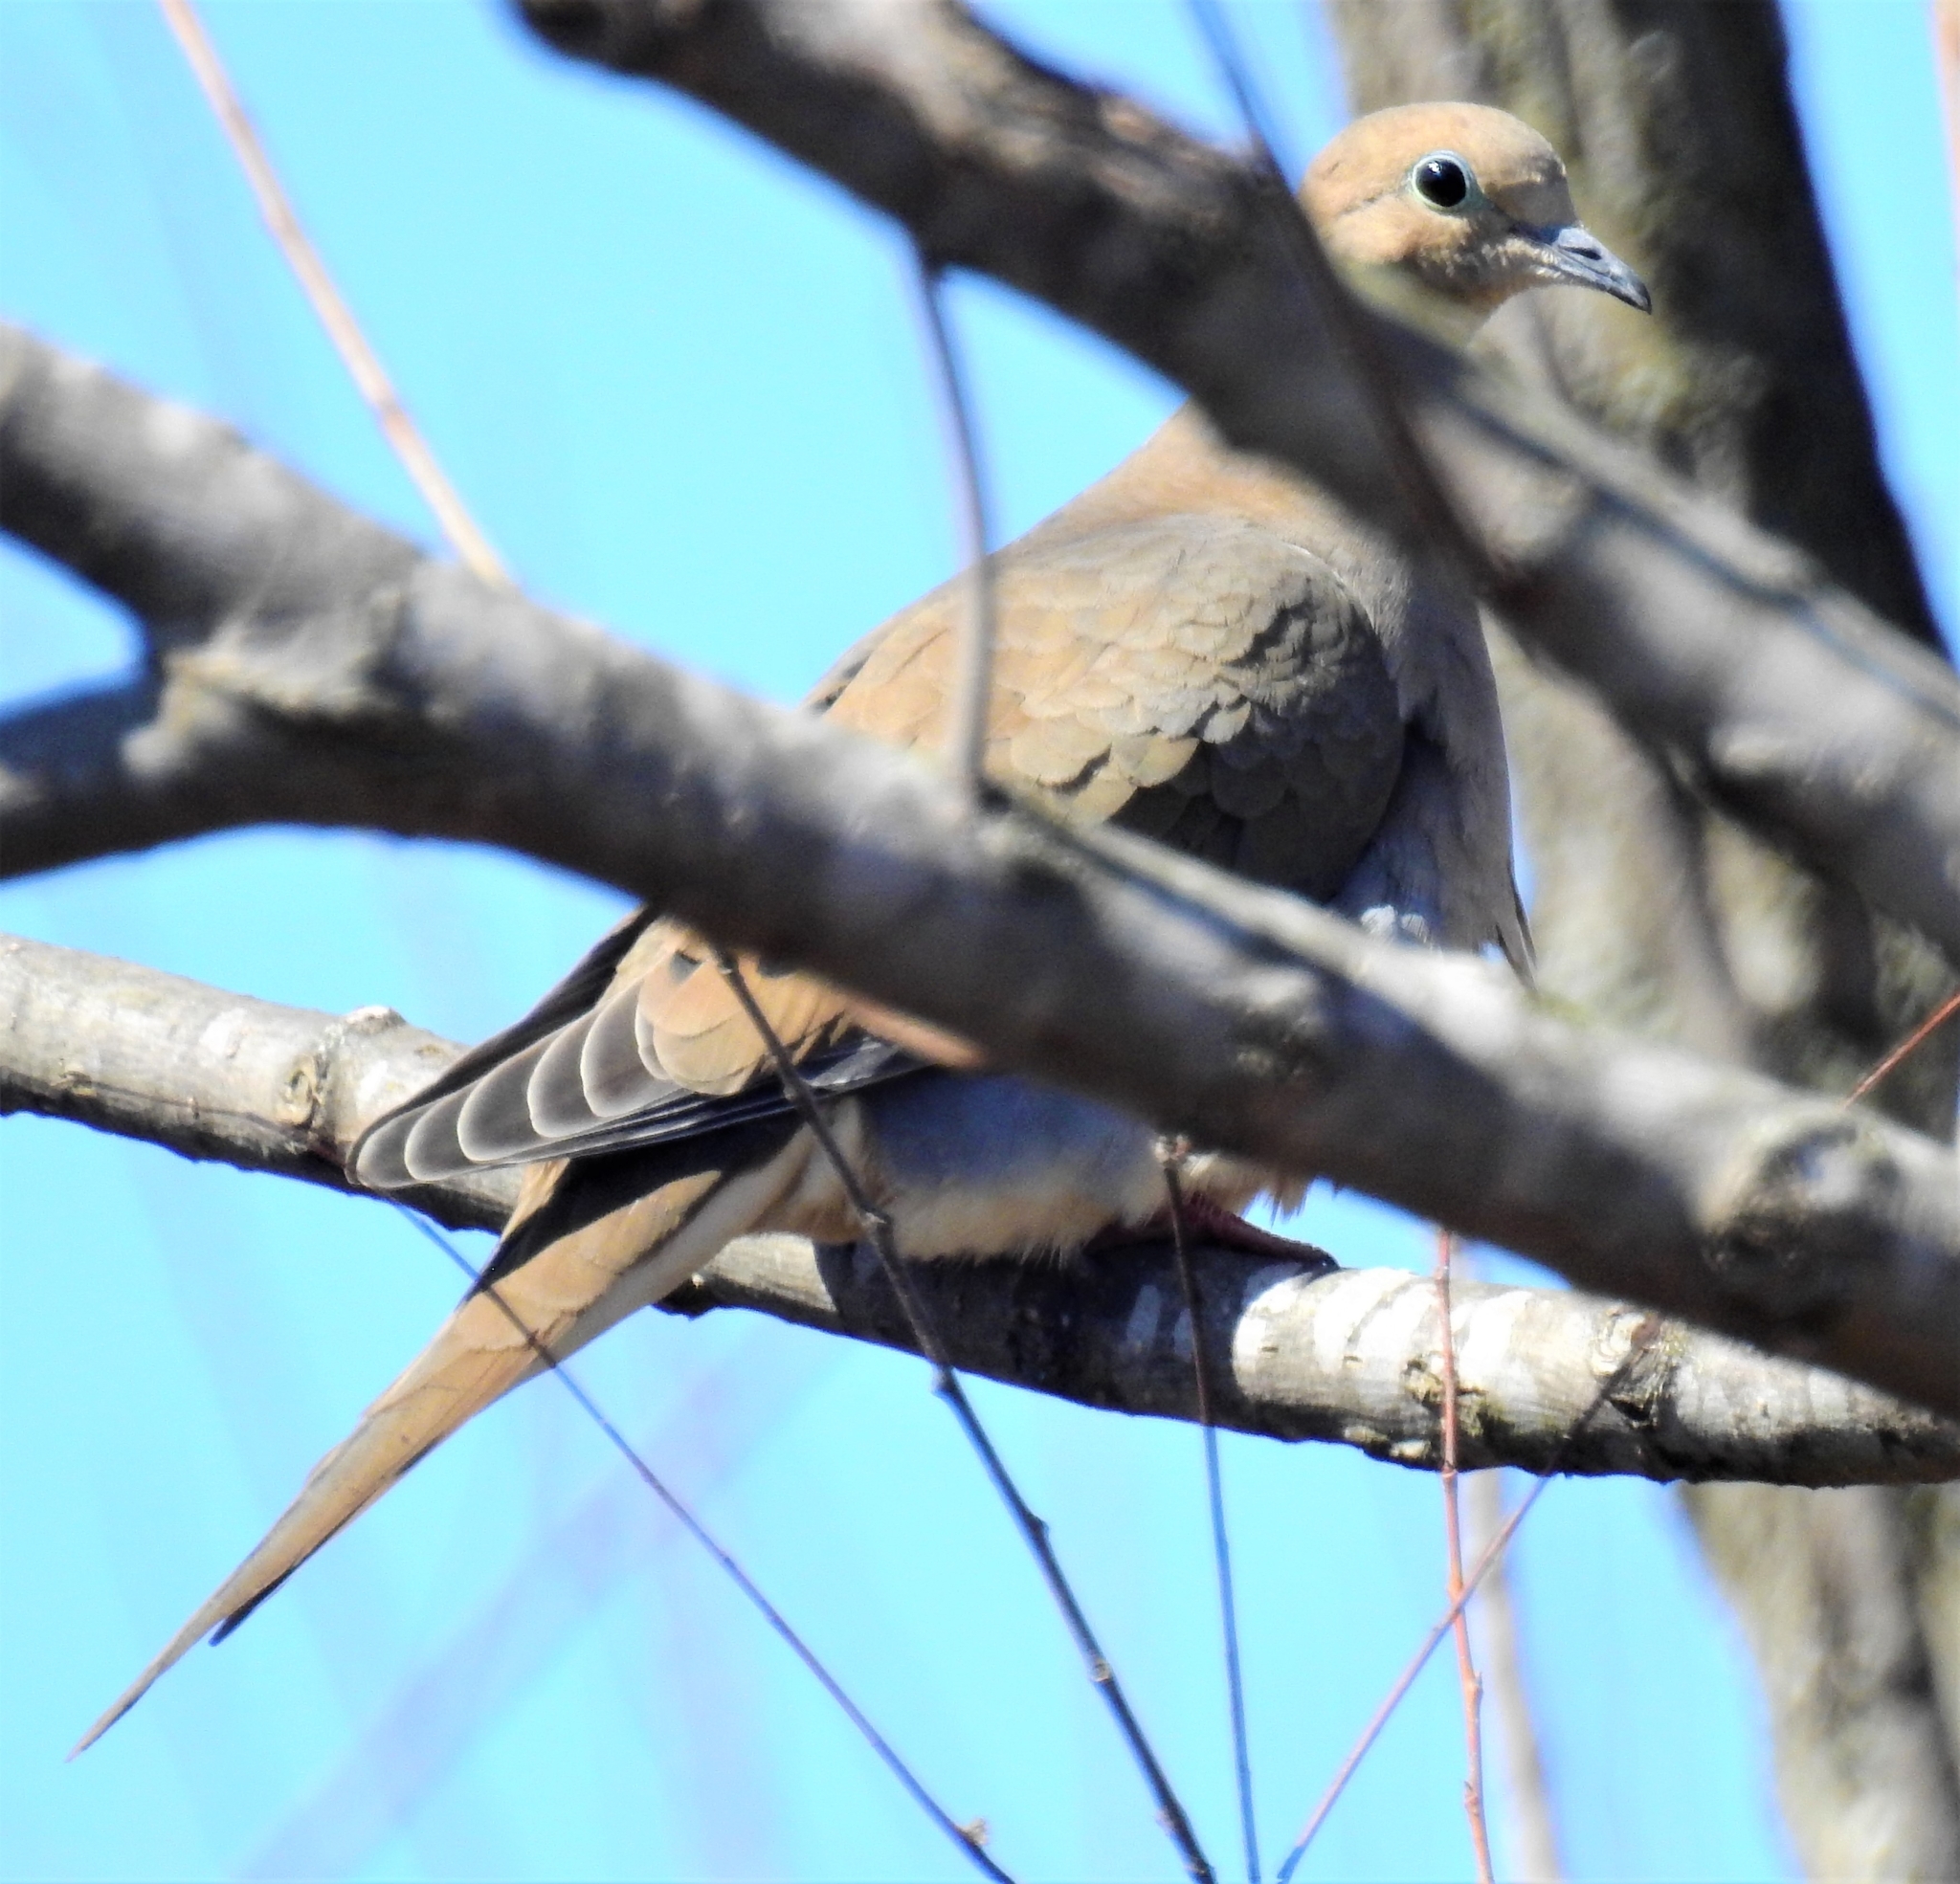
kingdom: Animalia
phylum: Chordata
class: Aves
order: Columbiformes
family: Columbidae
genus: Zenaida
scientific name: Zenaida macroura
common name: Mourning dove
